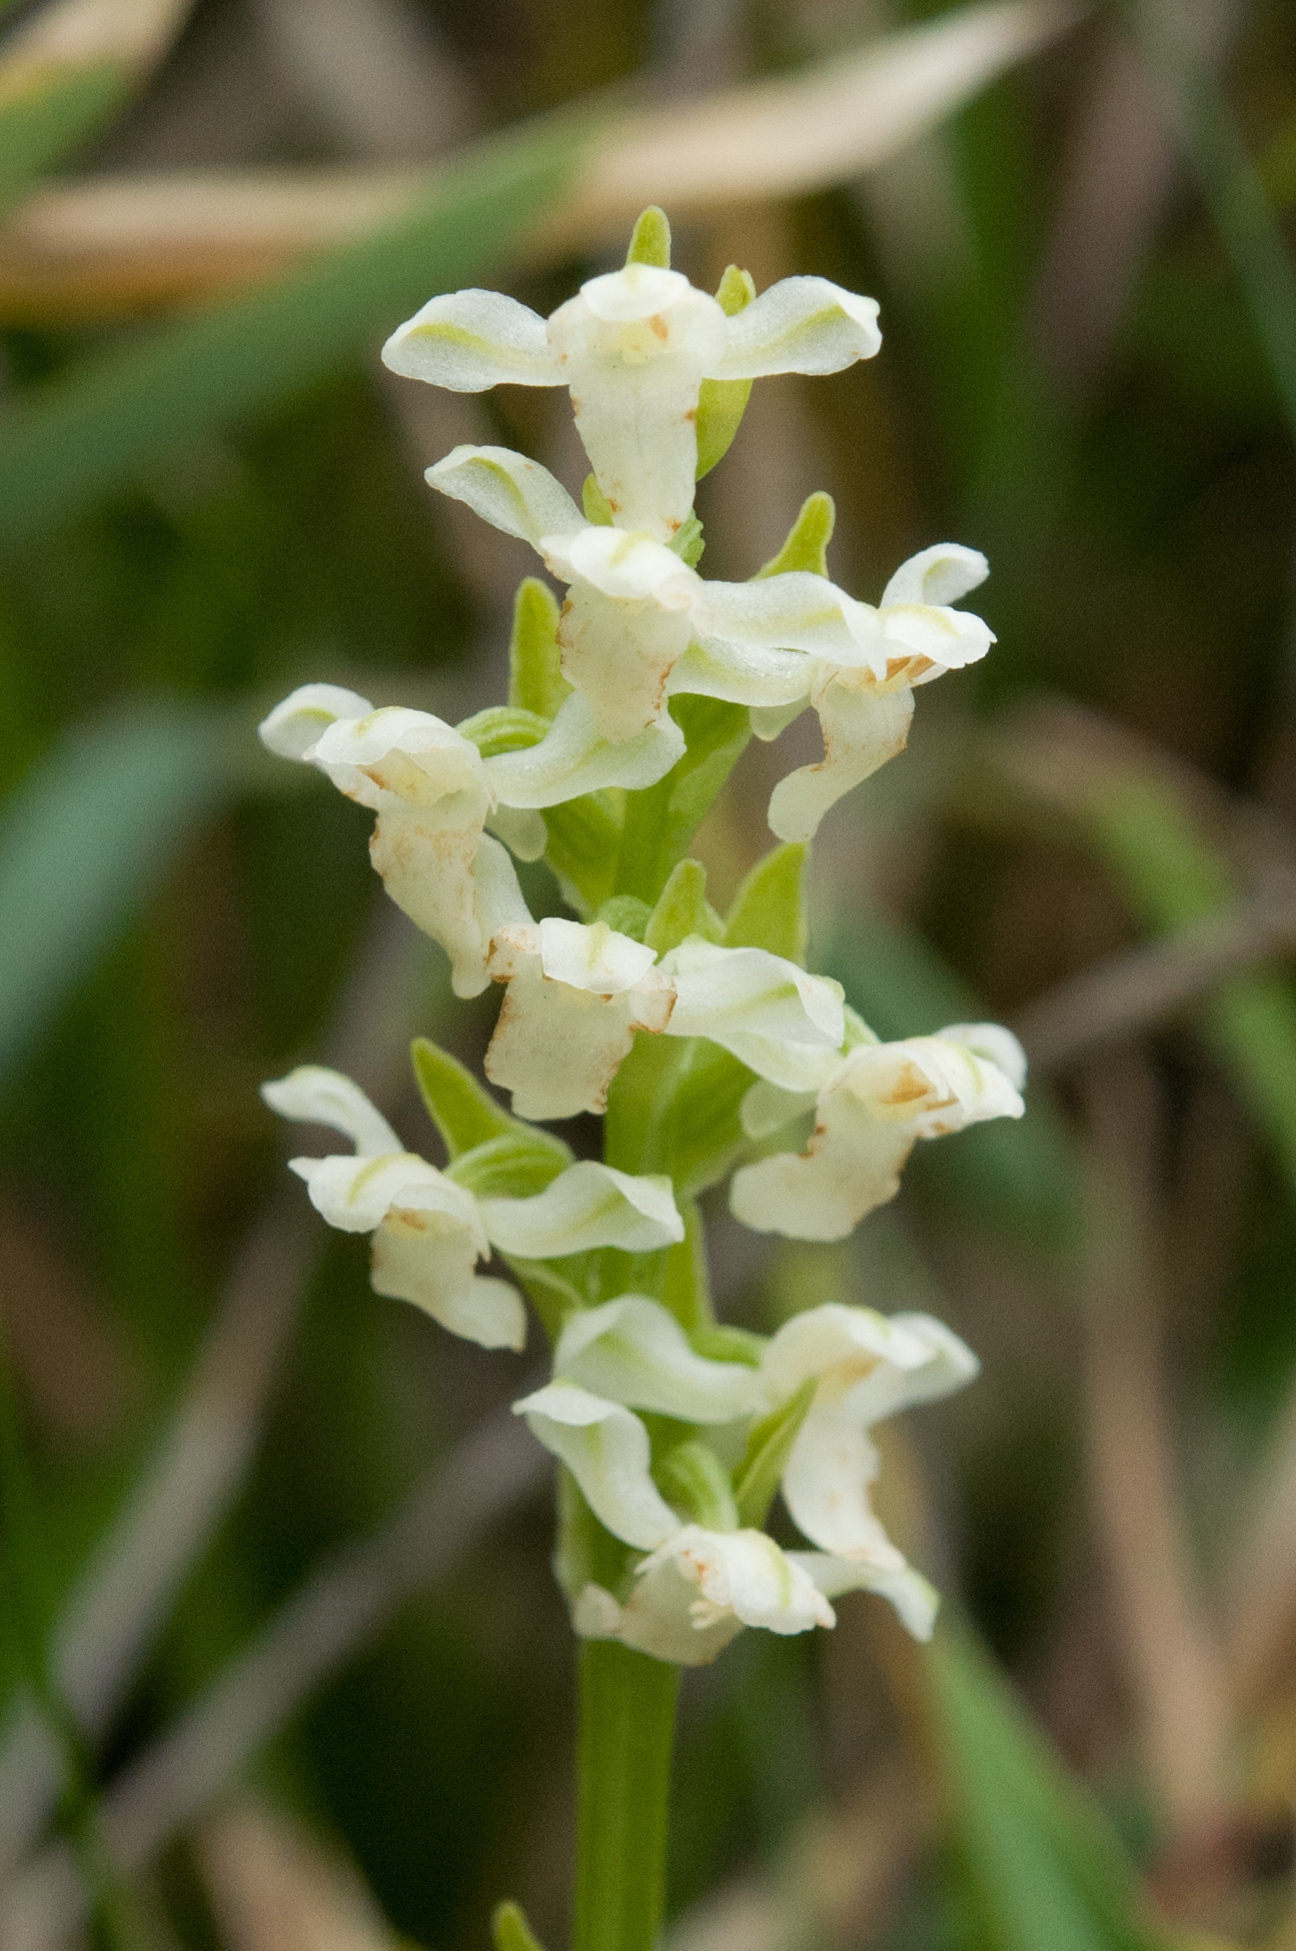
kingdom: Plantae
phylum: Tracheophyta
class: Liliopsida
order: Asparagales
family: Orchidaceae
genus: Platanthera
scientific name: Platanthera brevicalcarata
